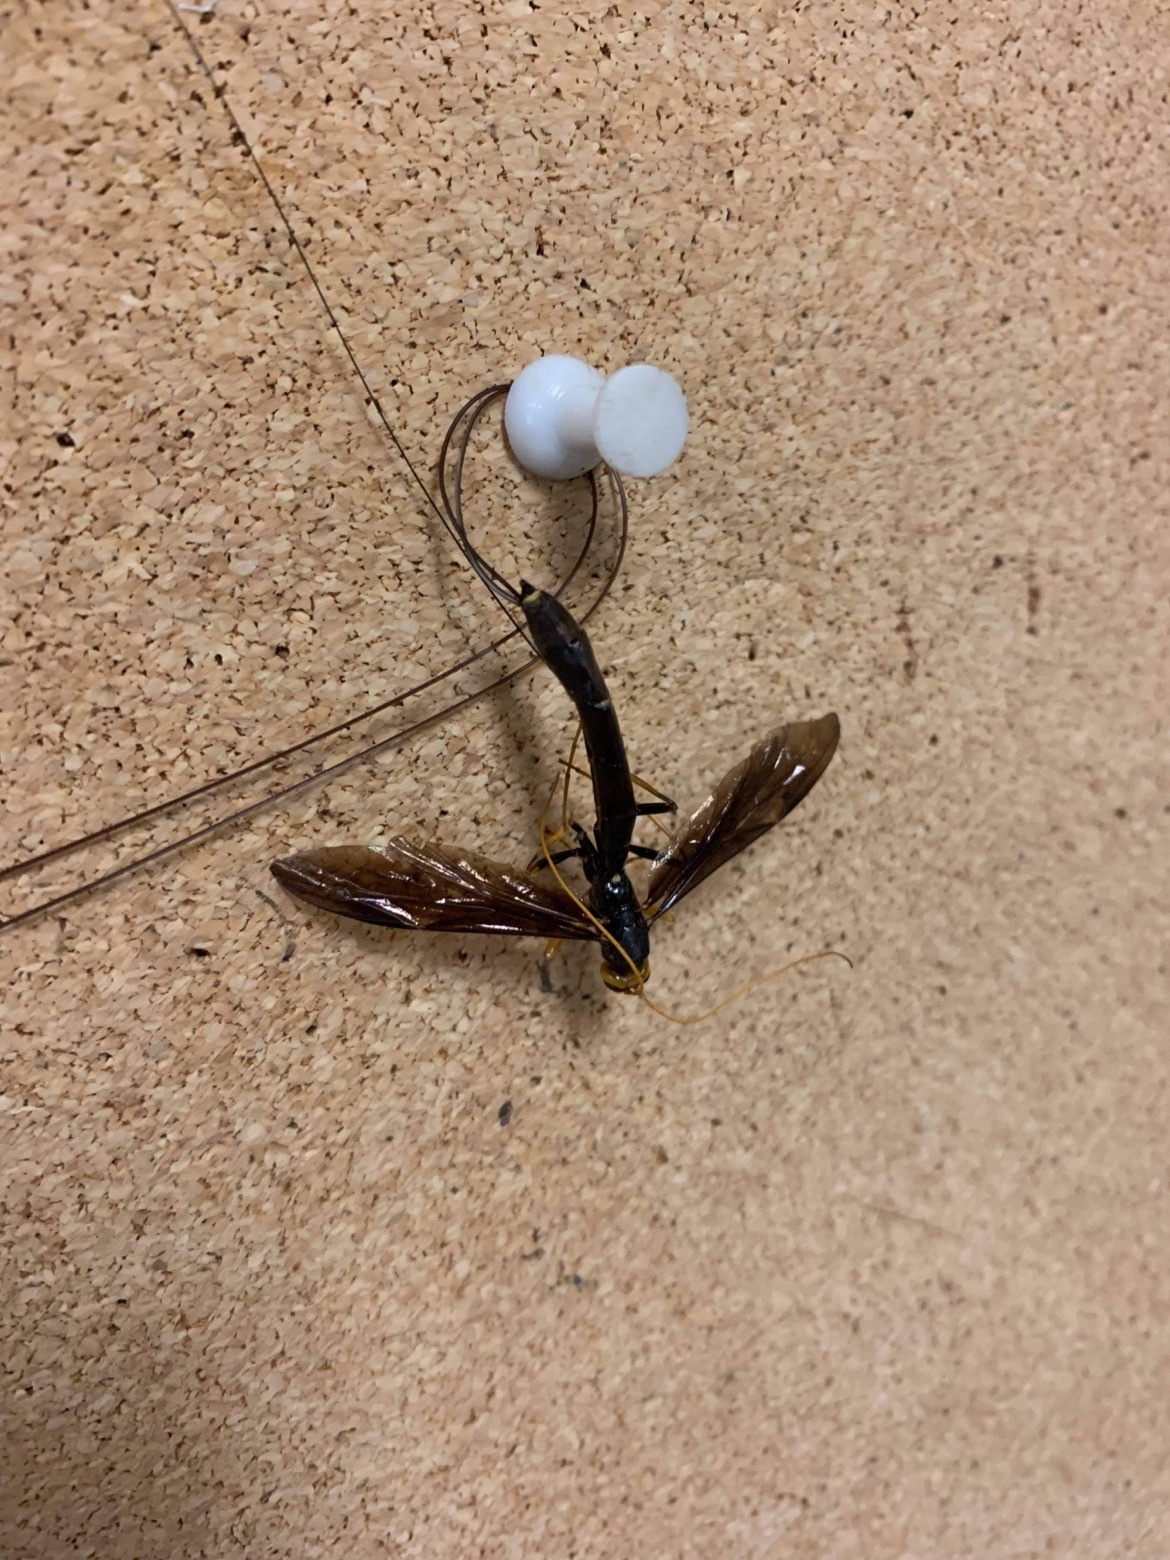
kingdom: Animalia
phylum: Arthropoda
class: Insecta
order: Hymenoptera
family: Ichneumonidae
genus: Megarhyssa
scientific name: Megarhyssa atrata
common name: Black giant ichneumonid wasp
